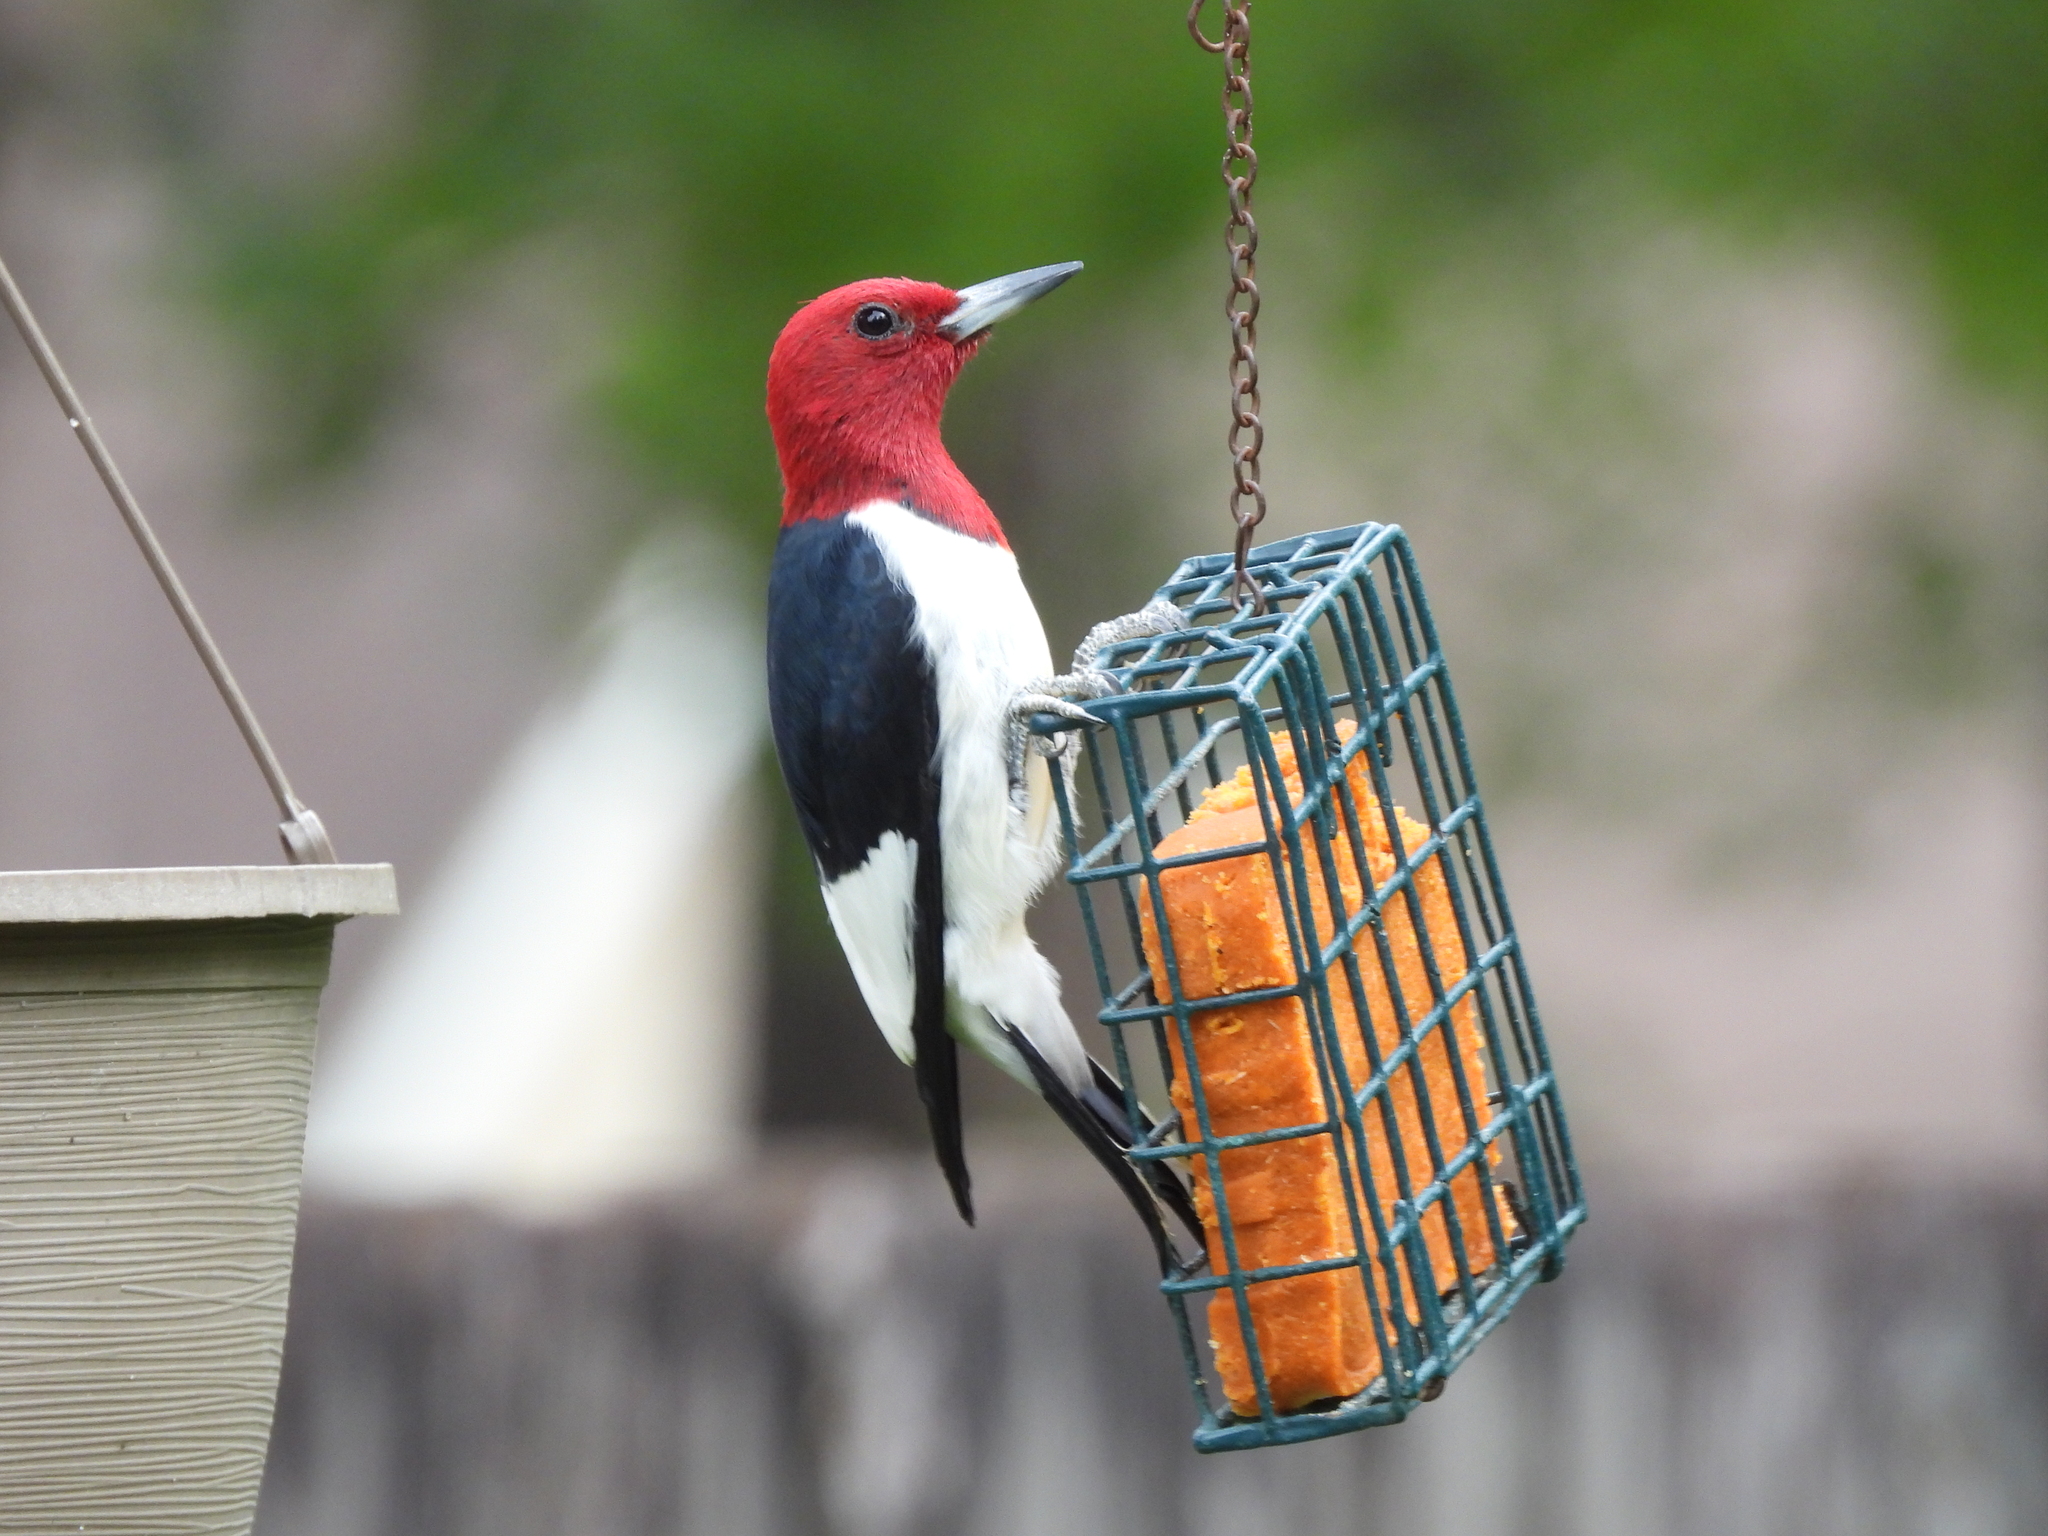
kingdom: Animalia
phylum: Chordata
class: Aves
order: Piciformes
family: Picidae
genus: Melanerpes
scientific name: Melanerpes erythrocephalus
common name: Red-headed woodpecker
